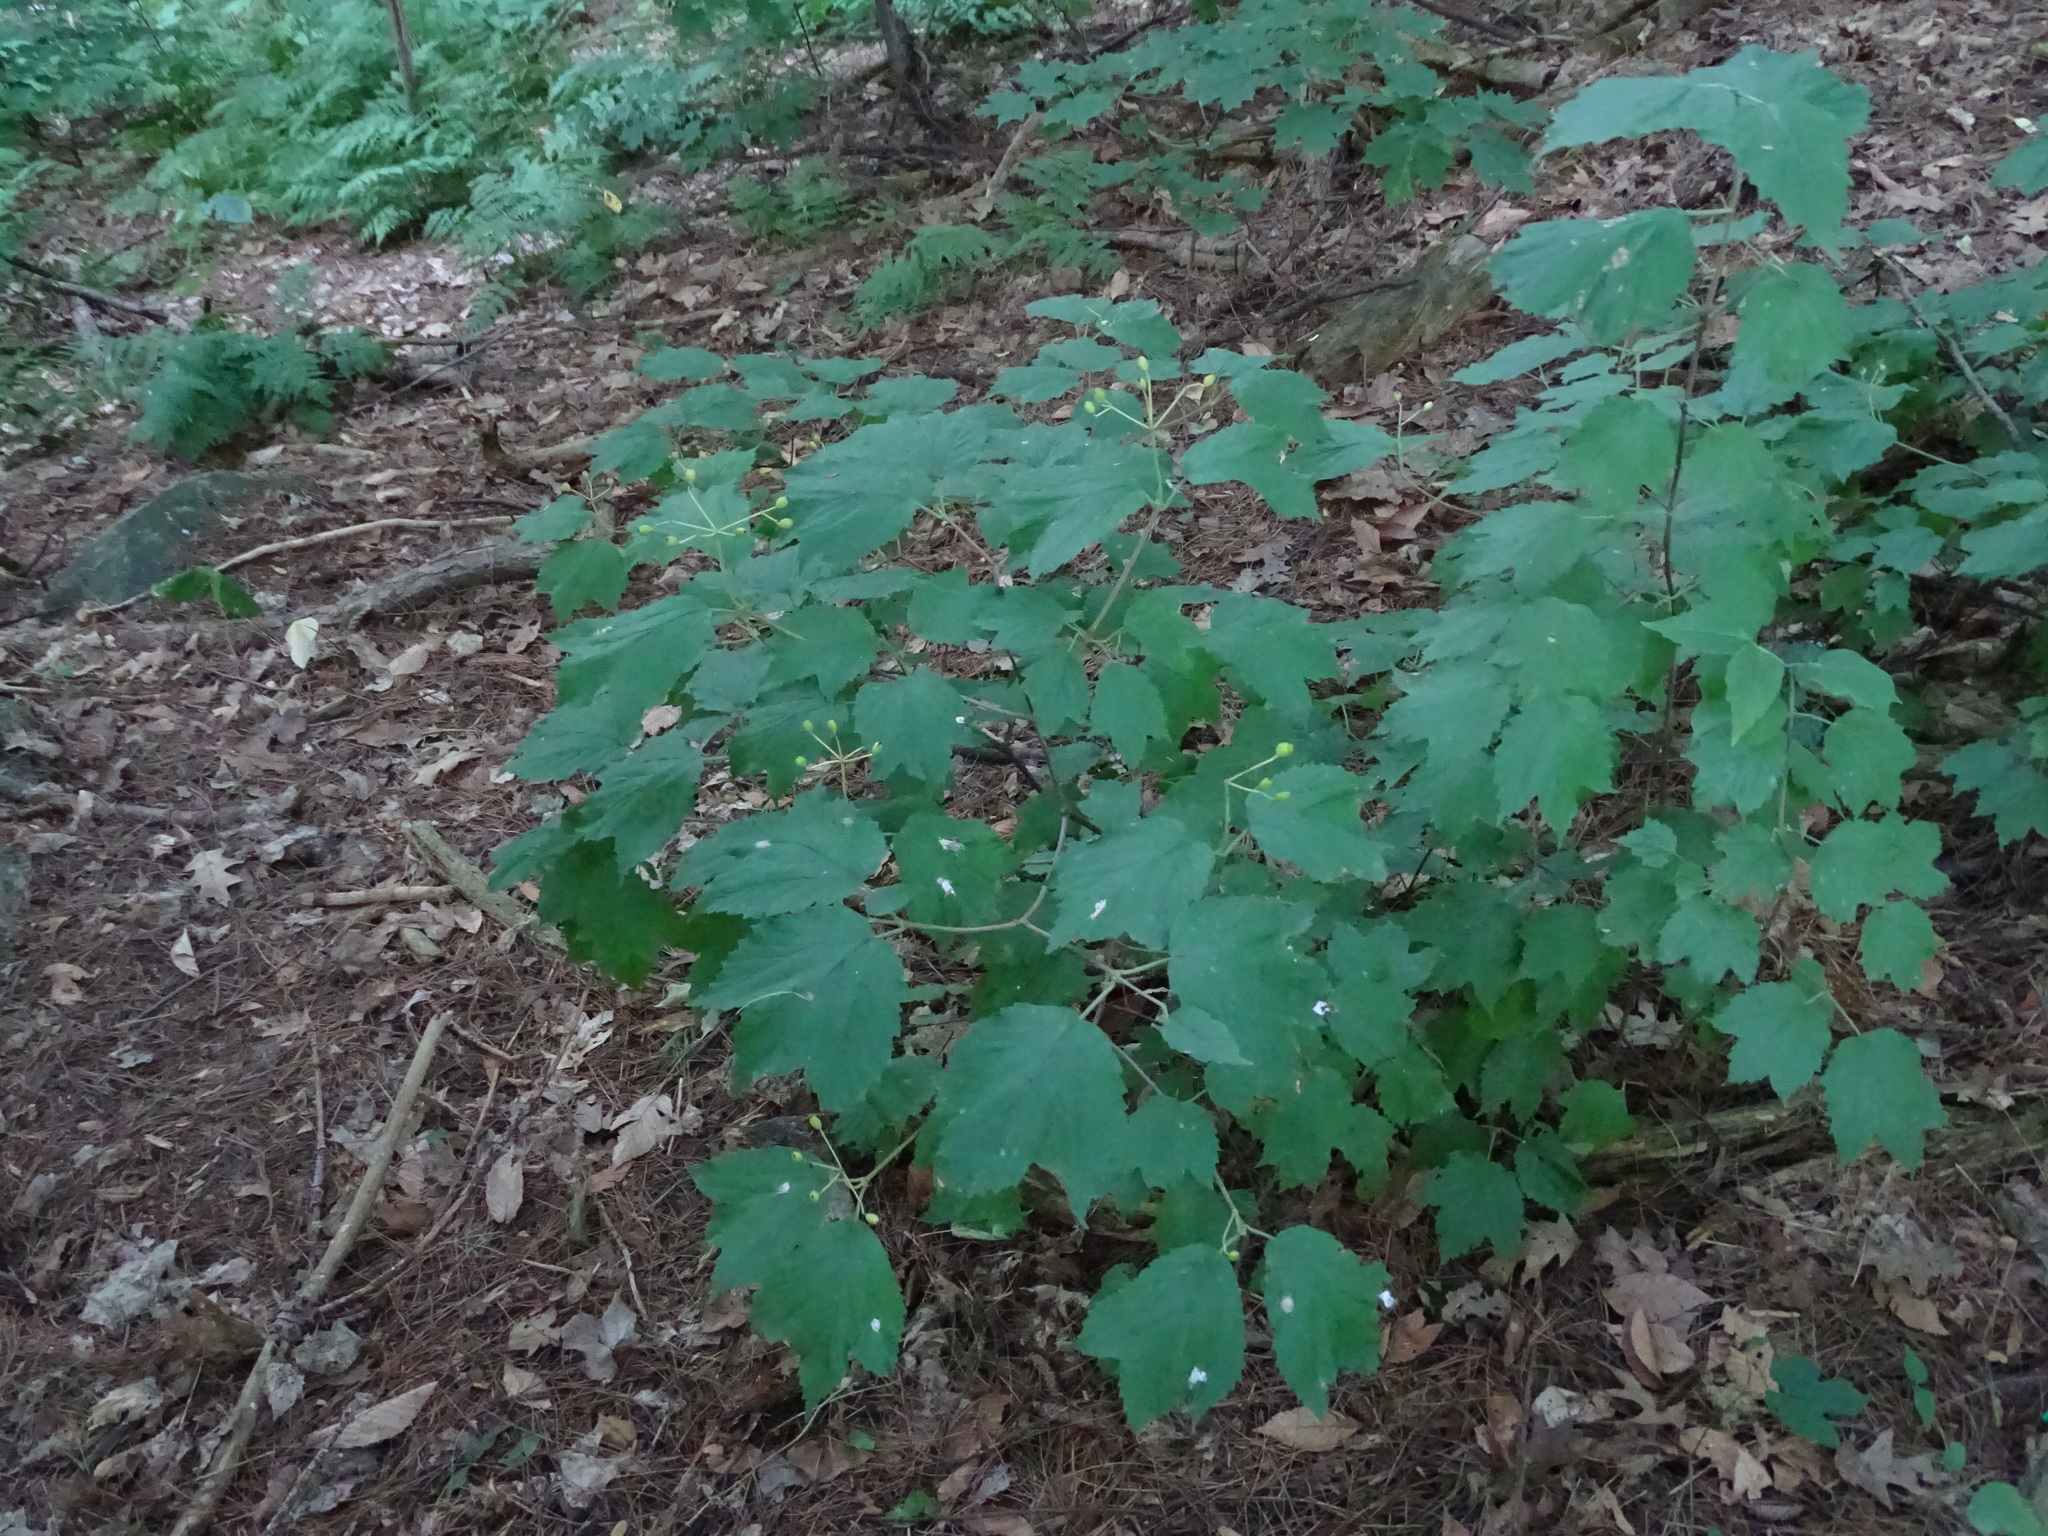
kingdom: Plantae
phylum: Tracheophyta
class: Magnoliopsida
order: Dipsacales
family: Viburnaceae
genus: Viburnum
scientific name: Viburnum acerifolium
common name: Dockmackie
